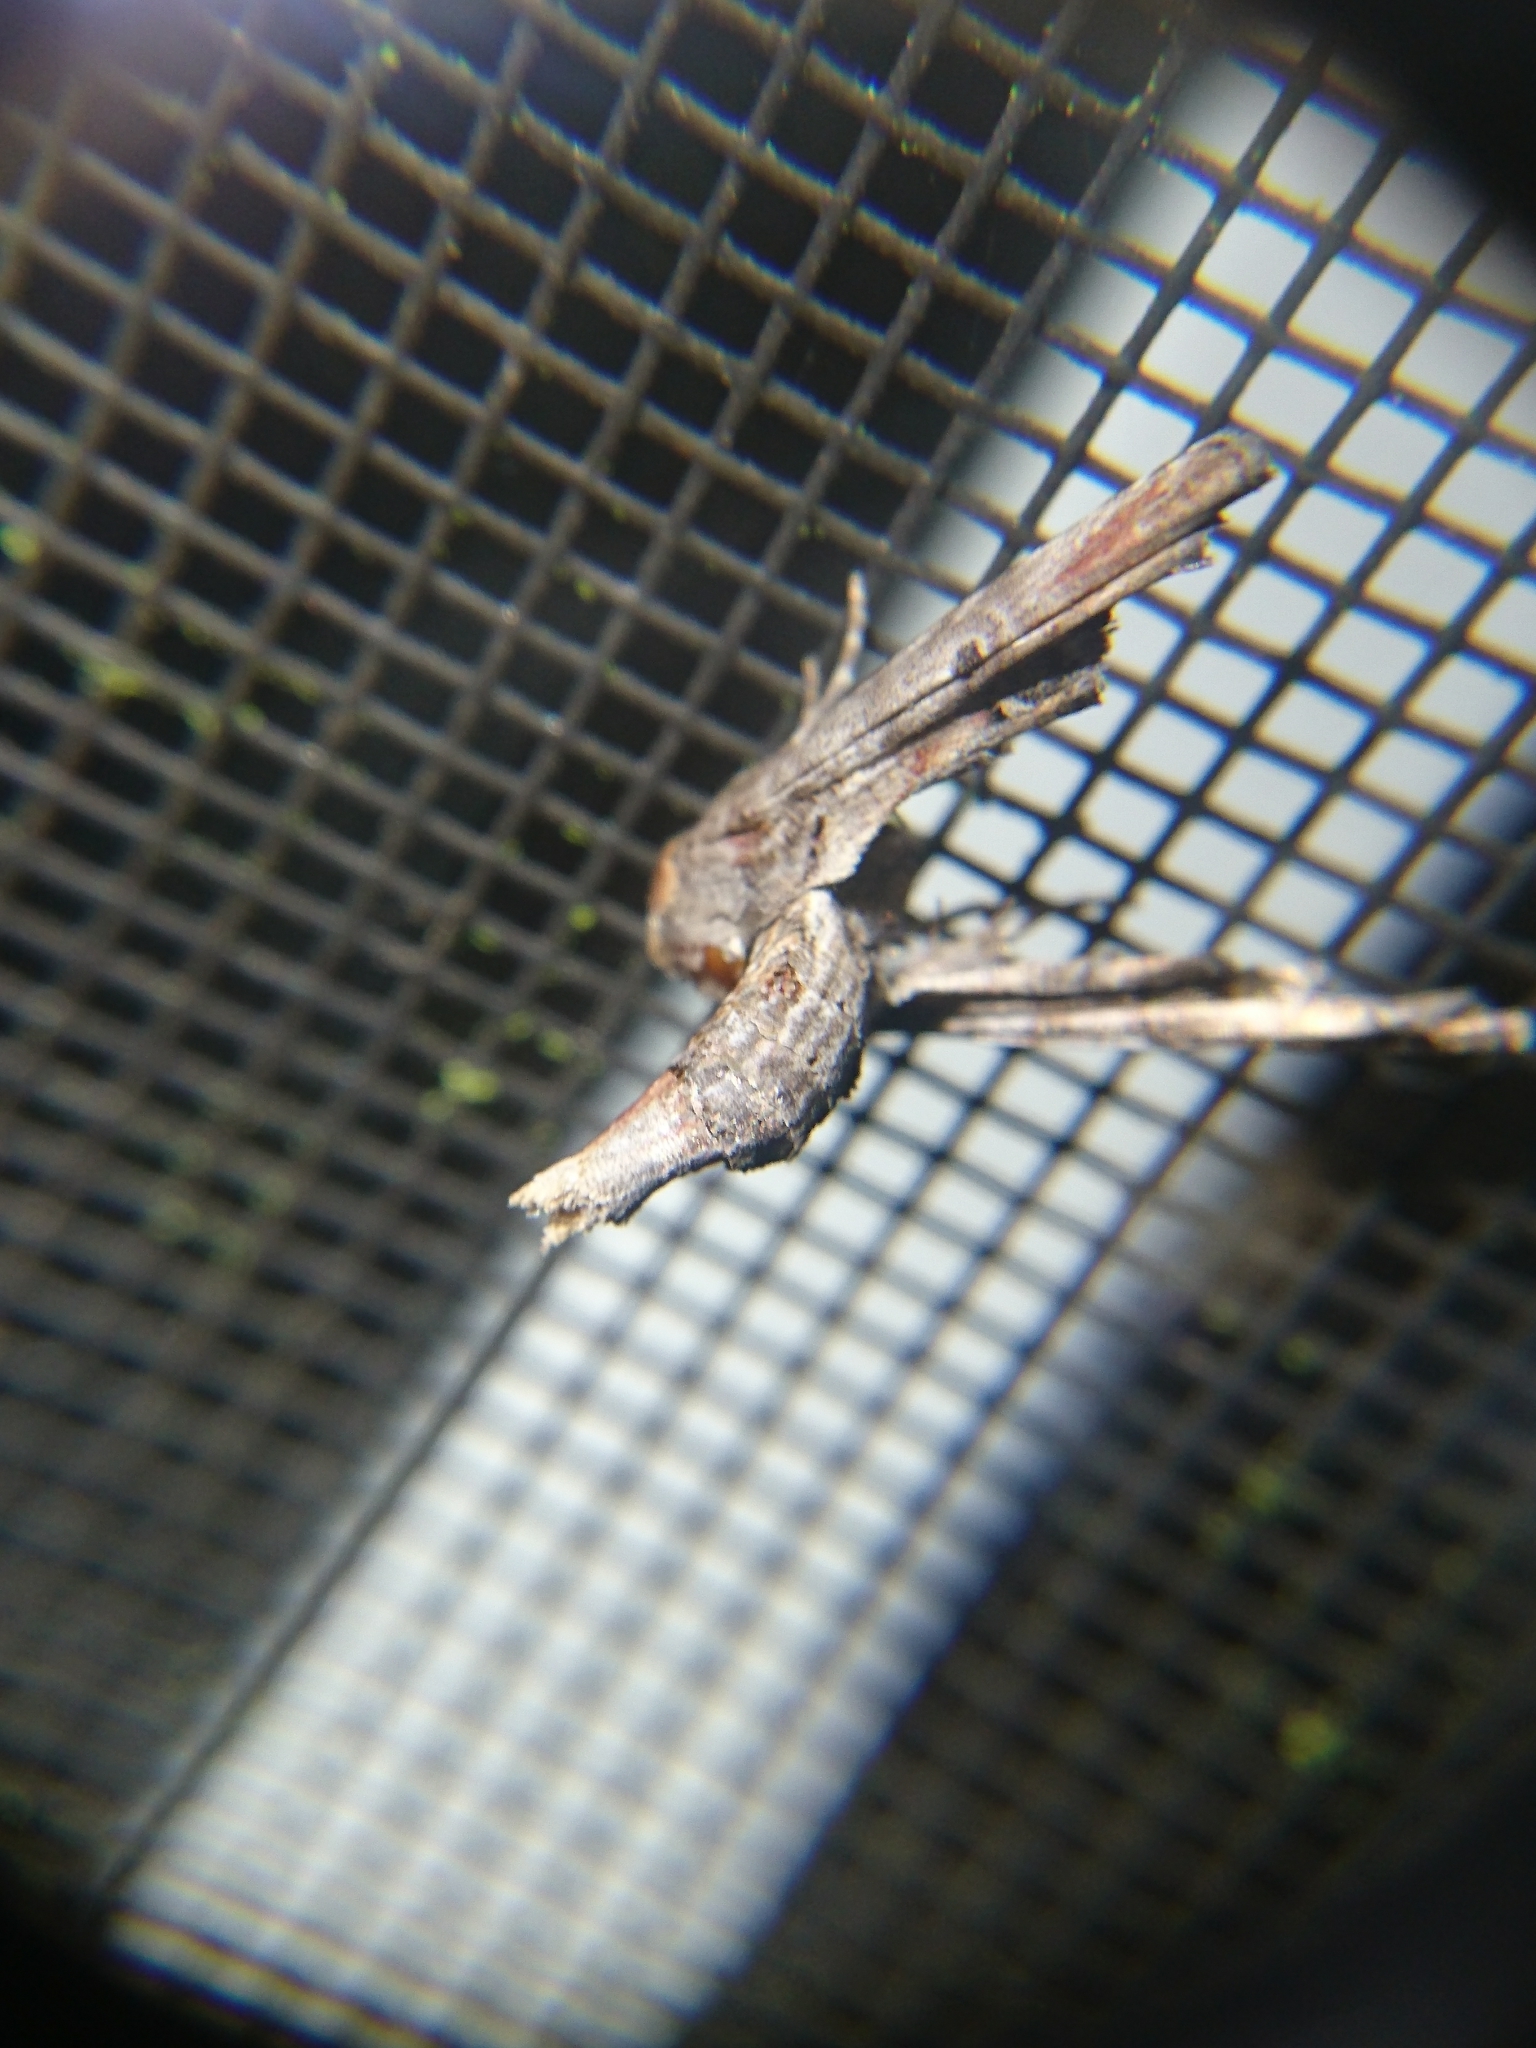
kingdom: Animalia
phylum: Arthropoda
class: Insecta
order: Lepidoptera
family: Euteliidae
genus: Marathyssa
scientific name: Marathyssa inficita
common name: Dark marathyssa moth
